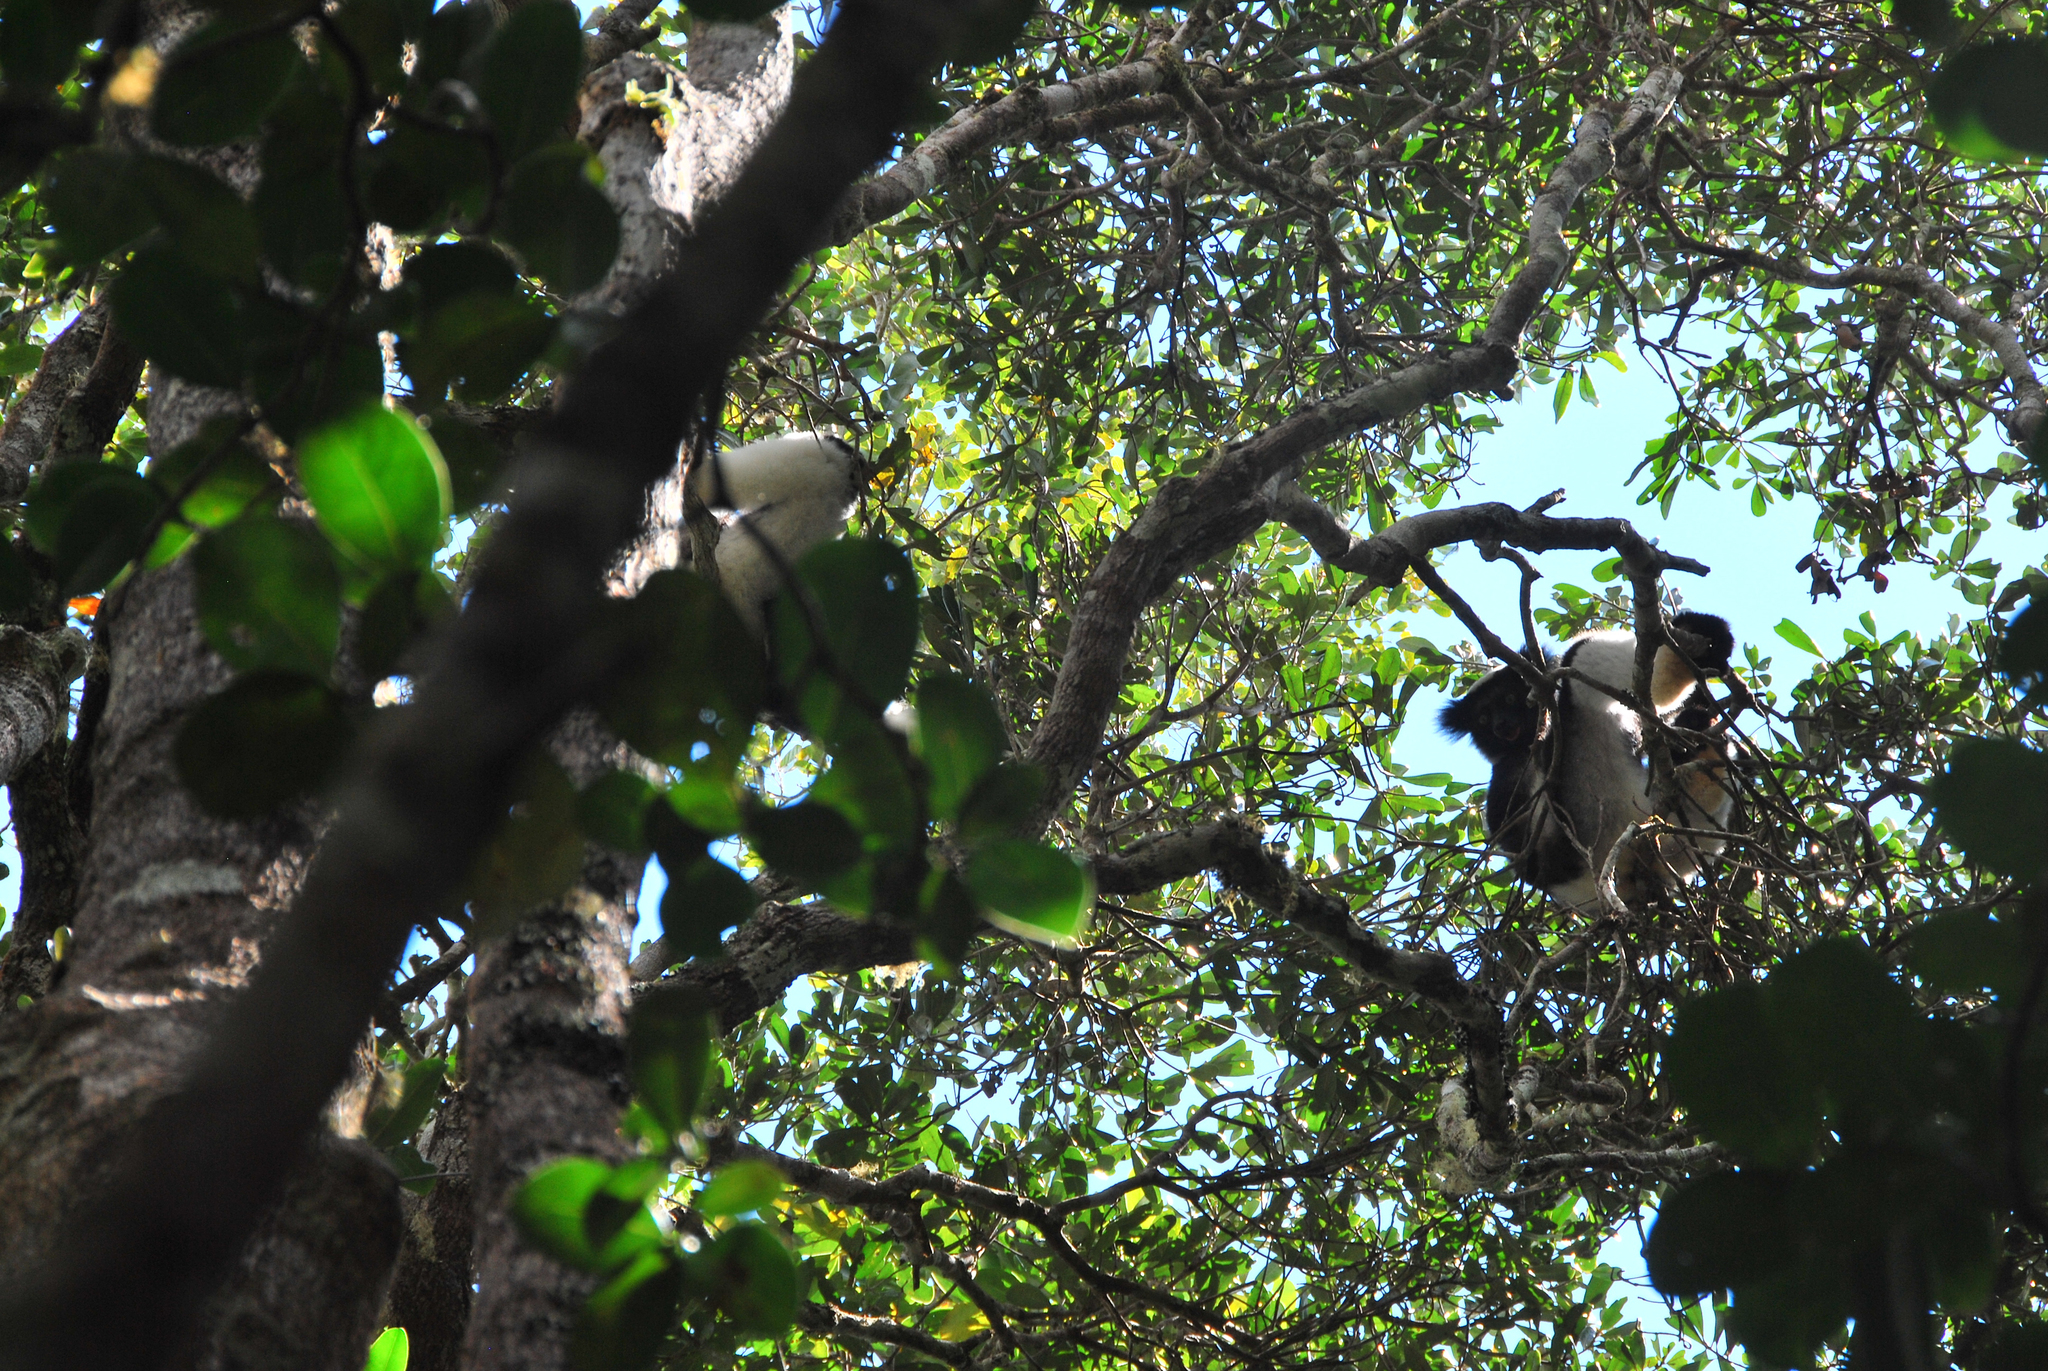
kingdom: Animalia
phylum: Chordata
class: Mammalia
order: Primates
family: Indriidae
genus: Indri
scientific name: Indri indri
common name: Indri
